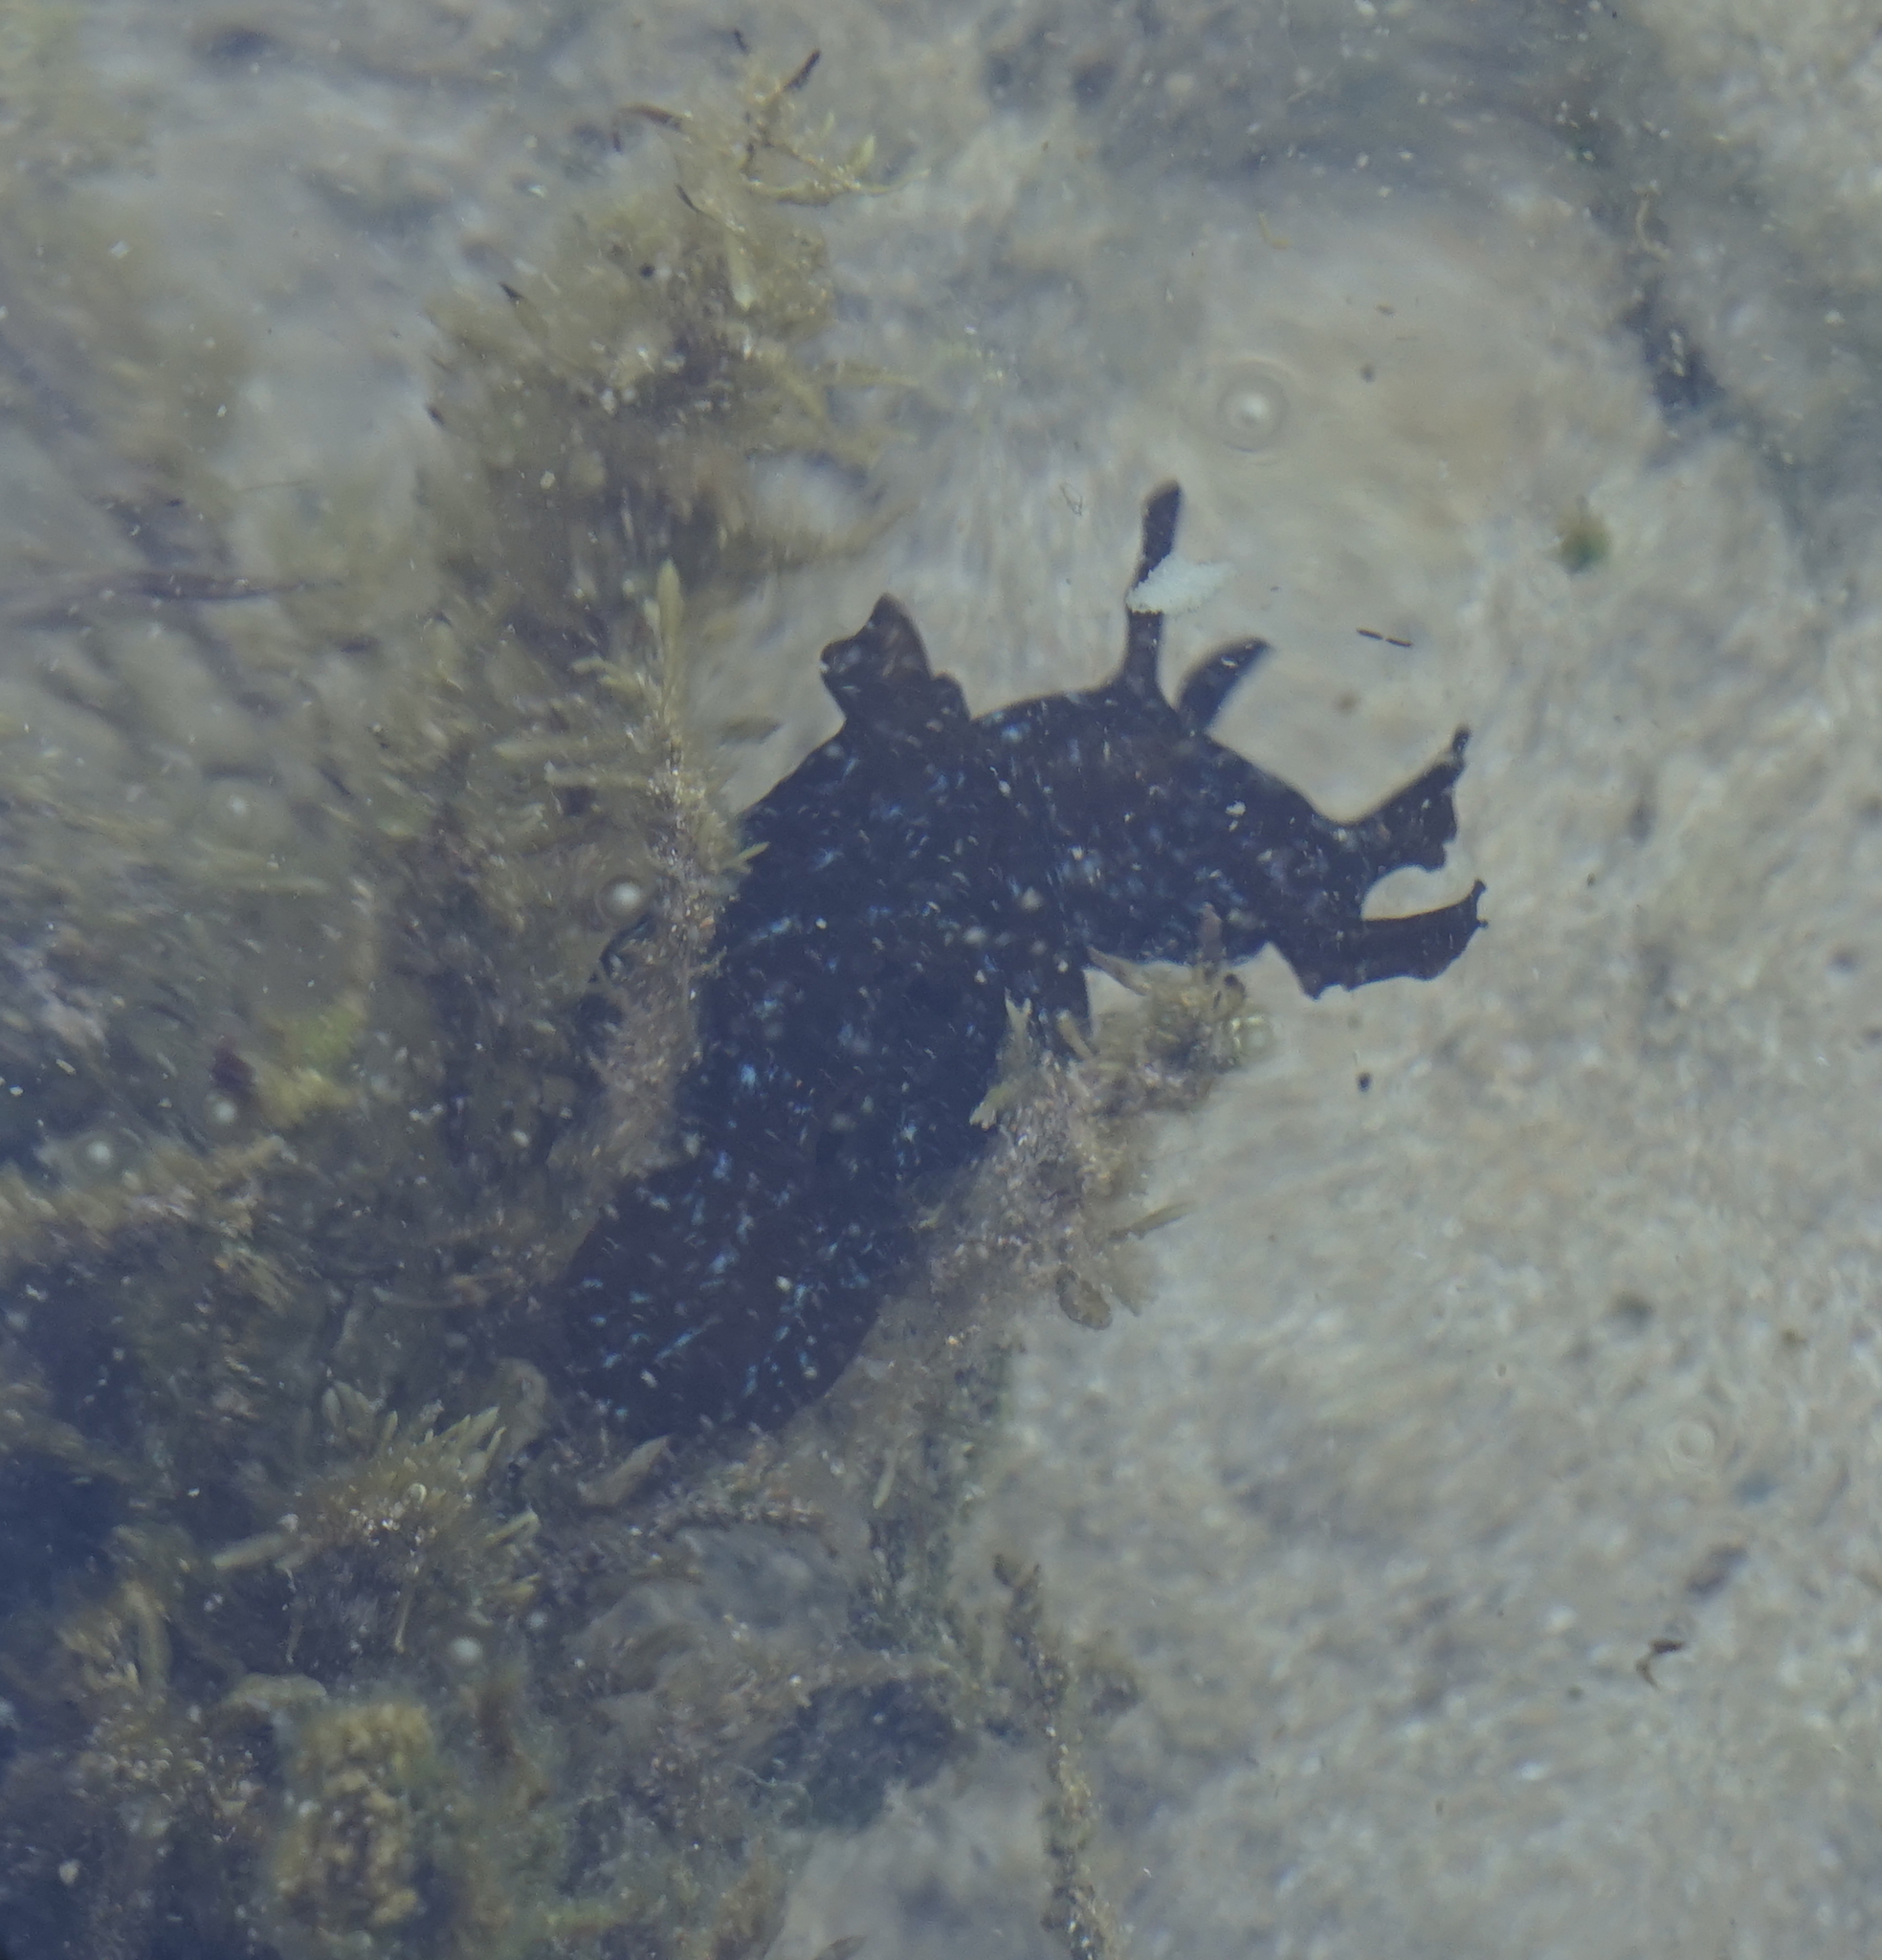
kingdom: Animalia
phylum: Mollusca
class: Gastropoda
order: Aplysiida
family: Aplysiidae
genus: Aplysia
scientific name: Aplysia juliana
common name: Walking sea hare
